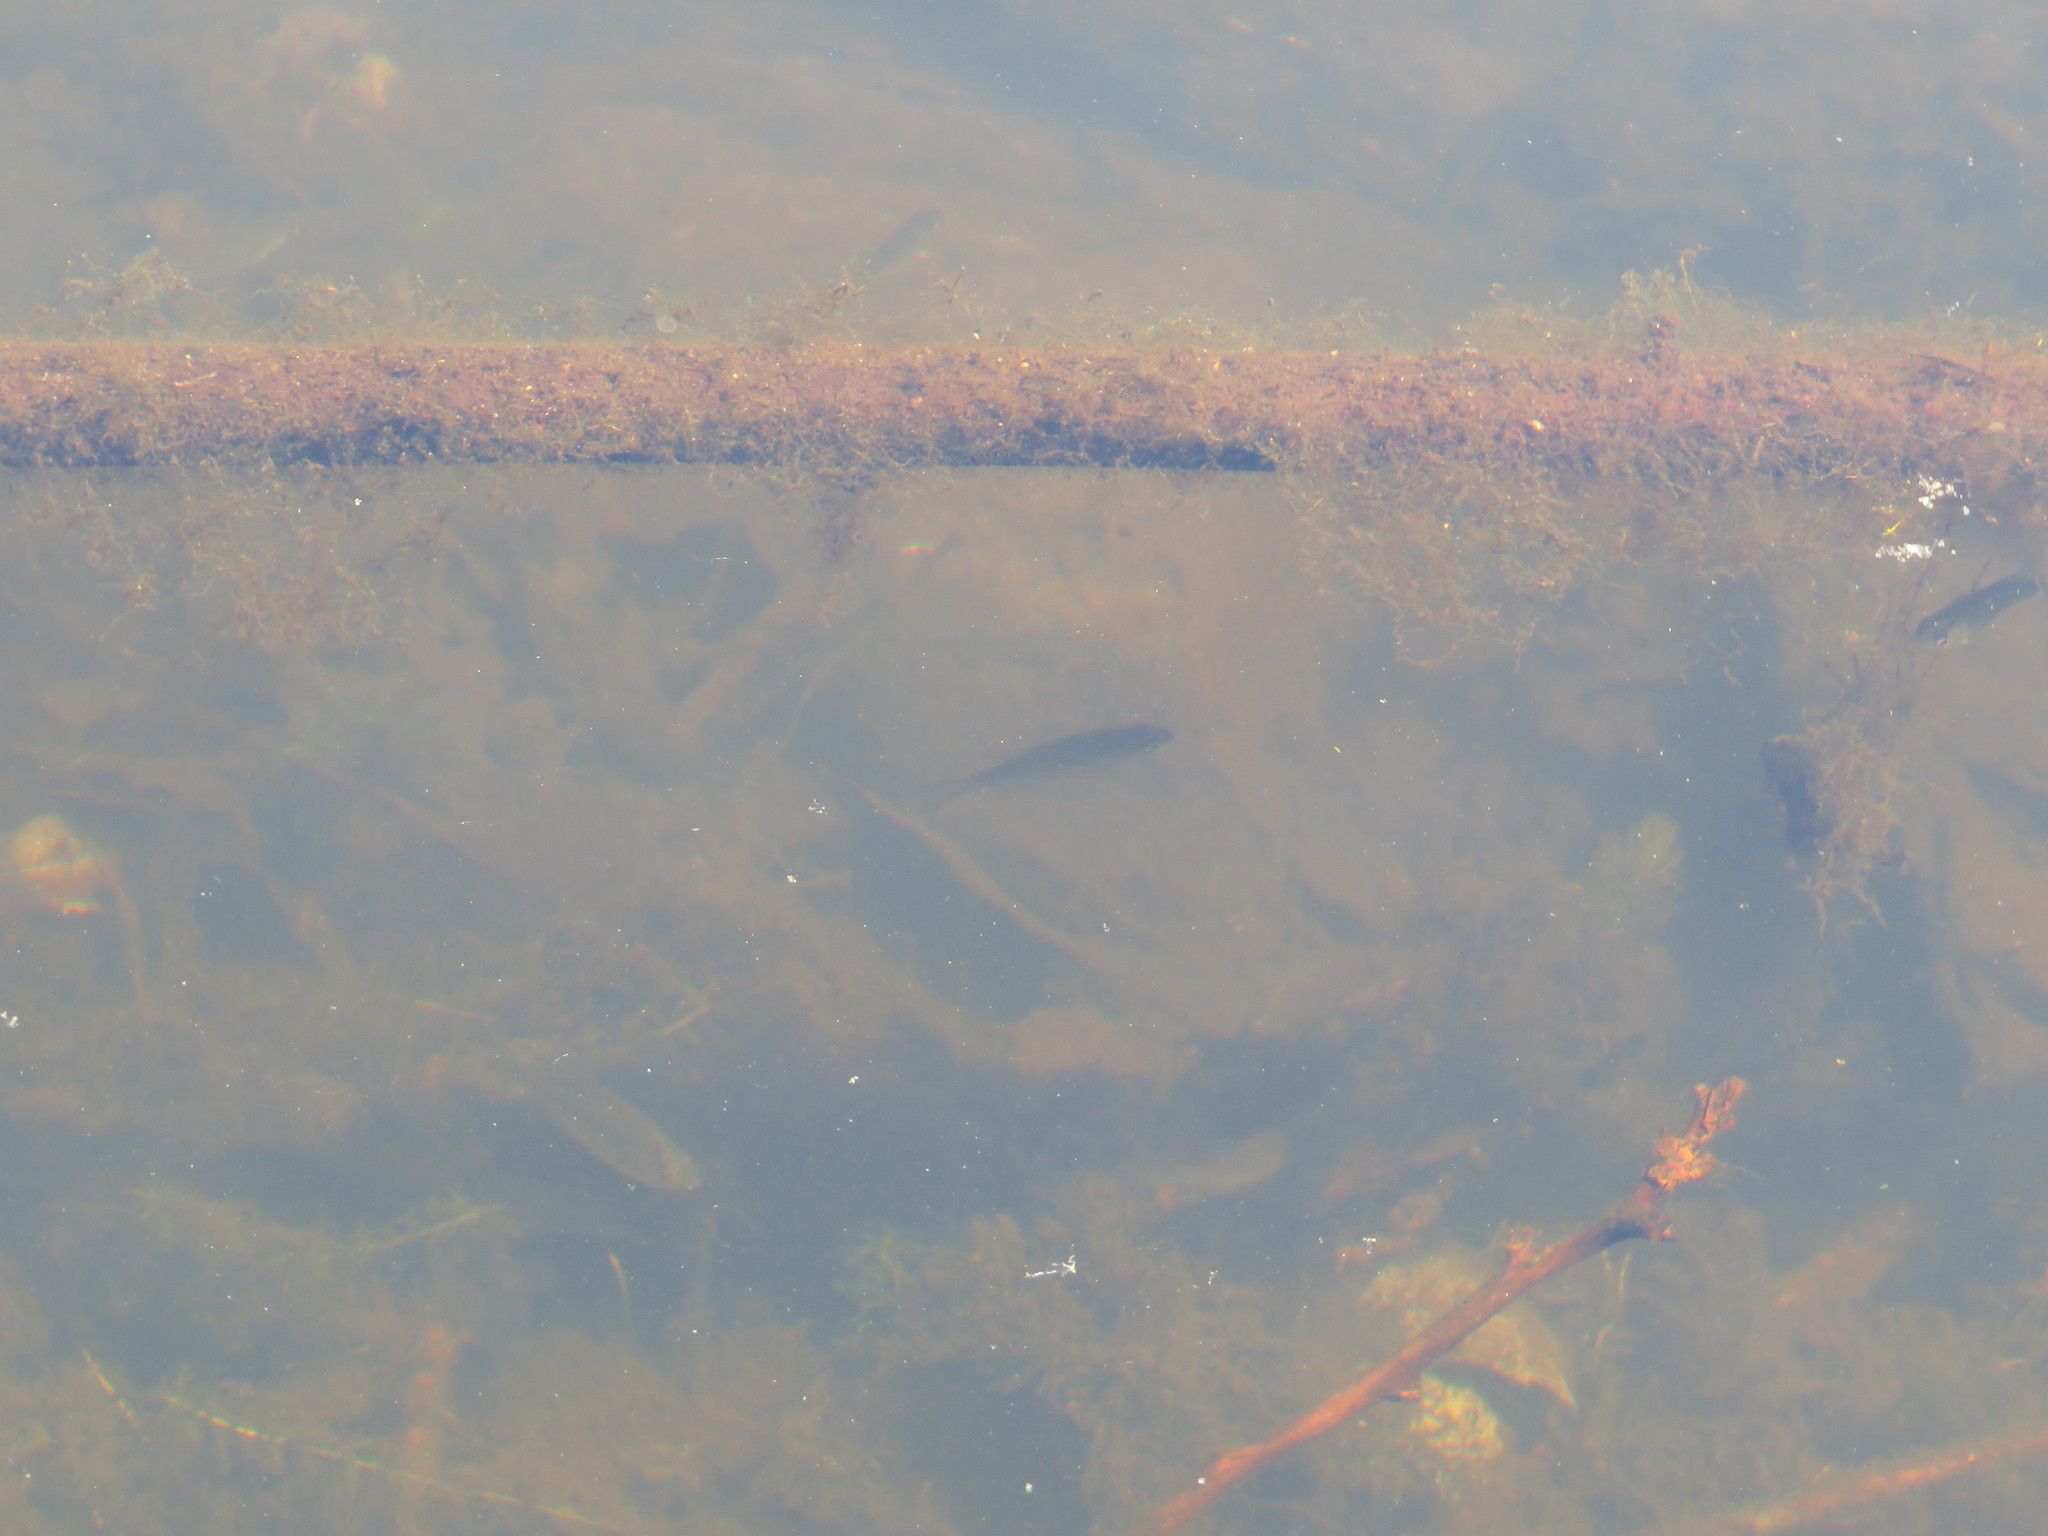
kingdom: Animalia
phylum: Chordata
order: Perciformes
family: Centrarchidae
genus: Lepomis
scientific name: Lepomis
